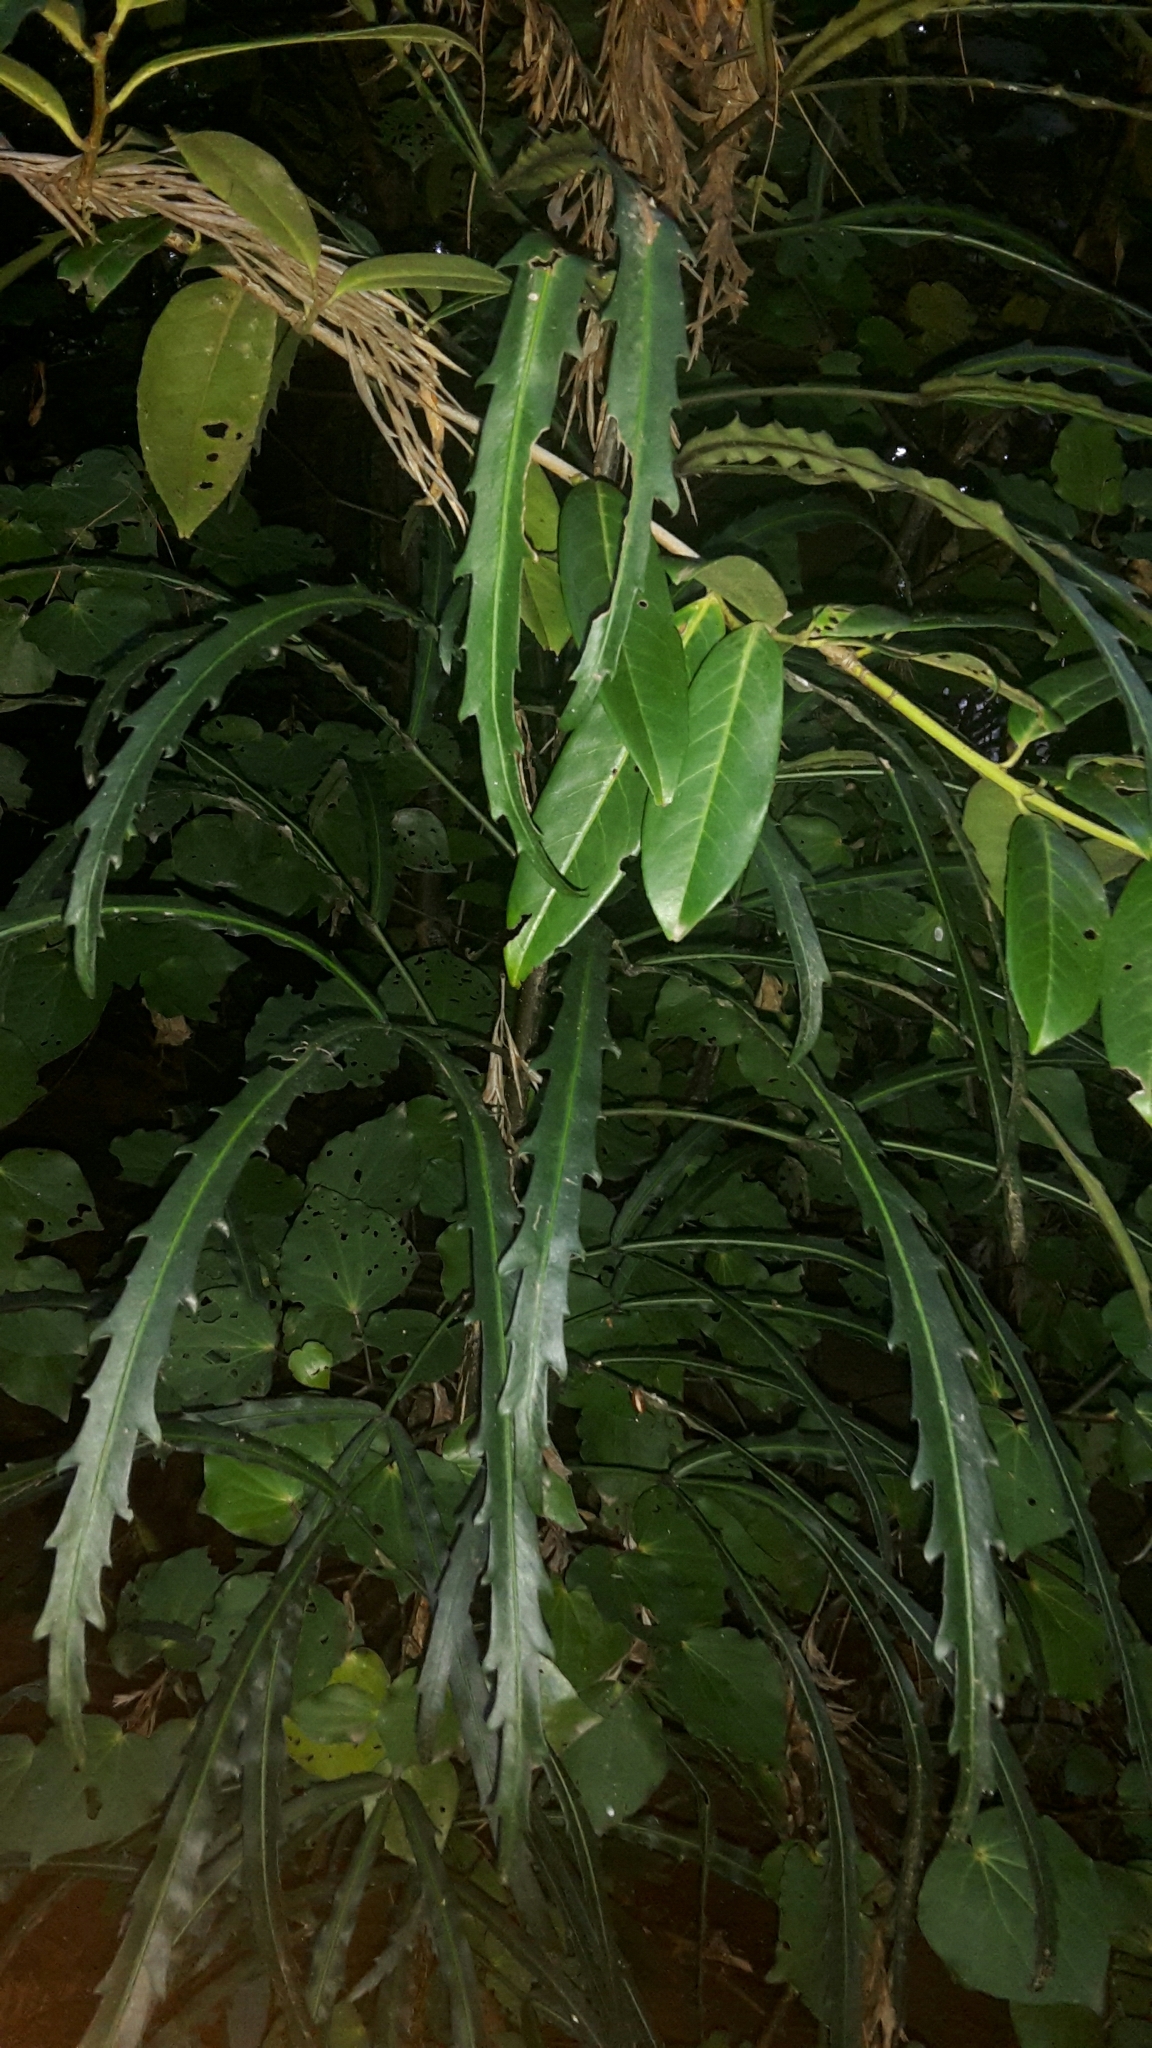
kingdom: Plantae
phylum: Tracheophyta
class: Magnoliopsida
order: Apiales
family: Araliaceae
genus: Pseudopanax
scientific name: Pseudopanax
